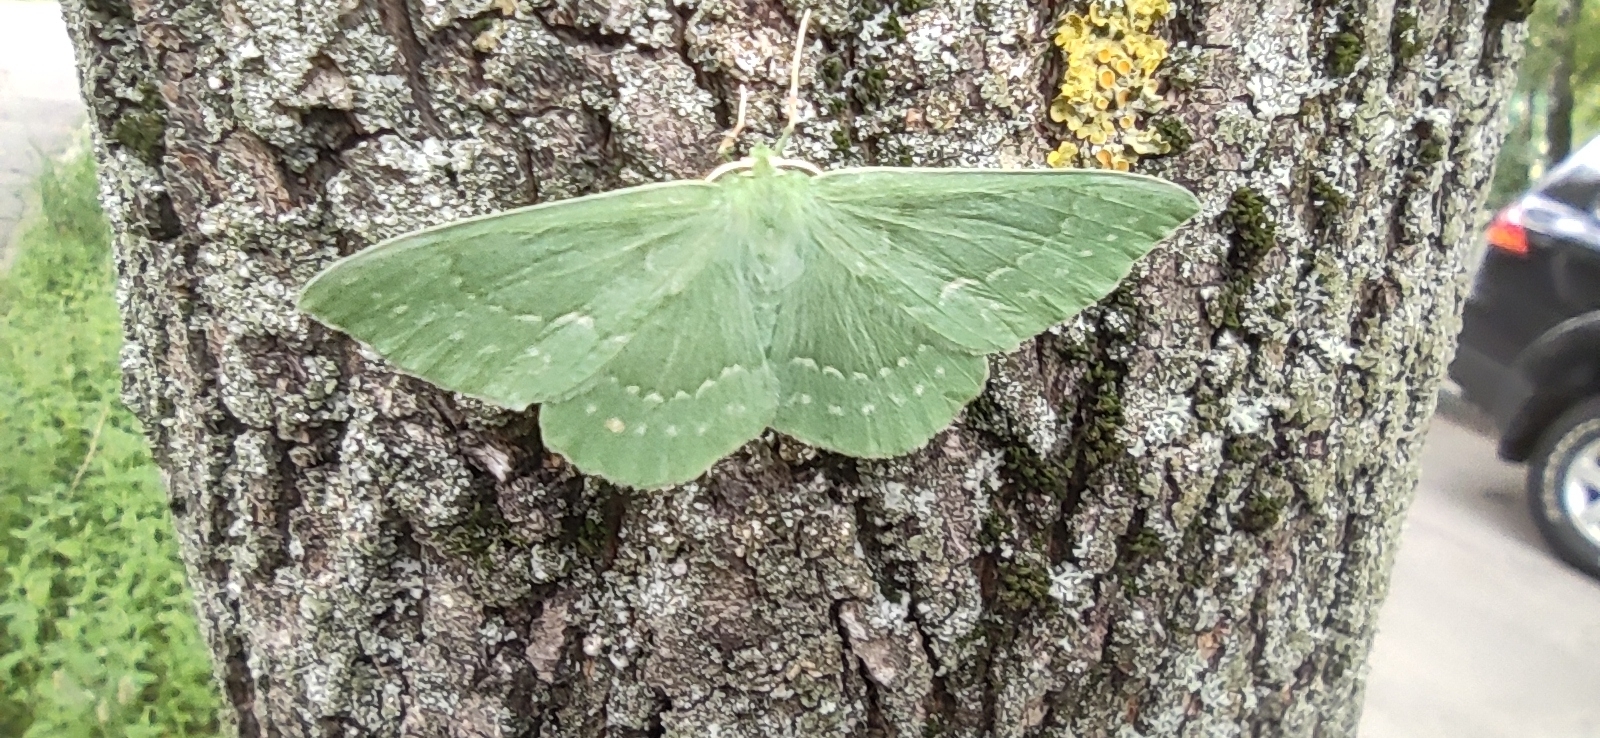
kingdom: Animalia
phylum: Arthropoda
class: Insecta
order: Lepidoptera
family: Geometridae
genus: Geometra
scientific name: Geometra papilionaria
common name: Large emerald
